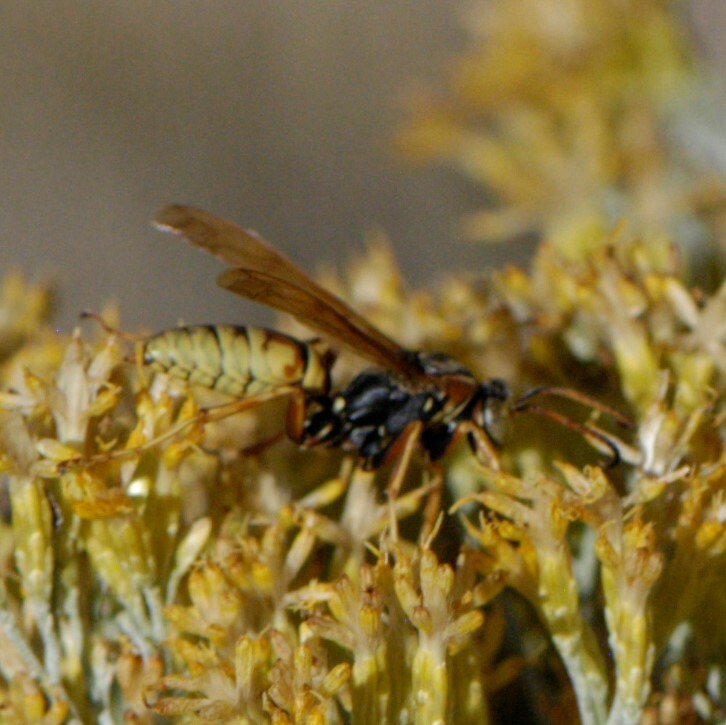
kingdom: Animalia
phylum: Arthropoda
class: Insecta
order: Hymenoptera
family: Eumenidae
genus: Polistes
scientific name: Polistes aurifer
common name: Paper wasp
